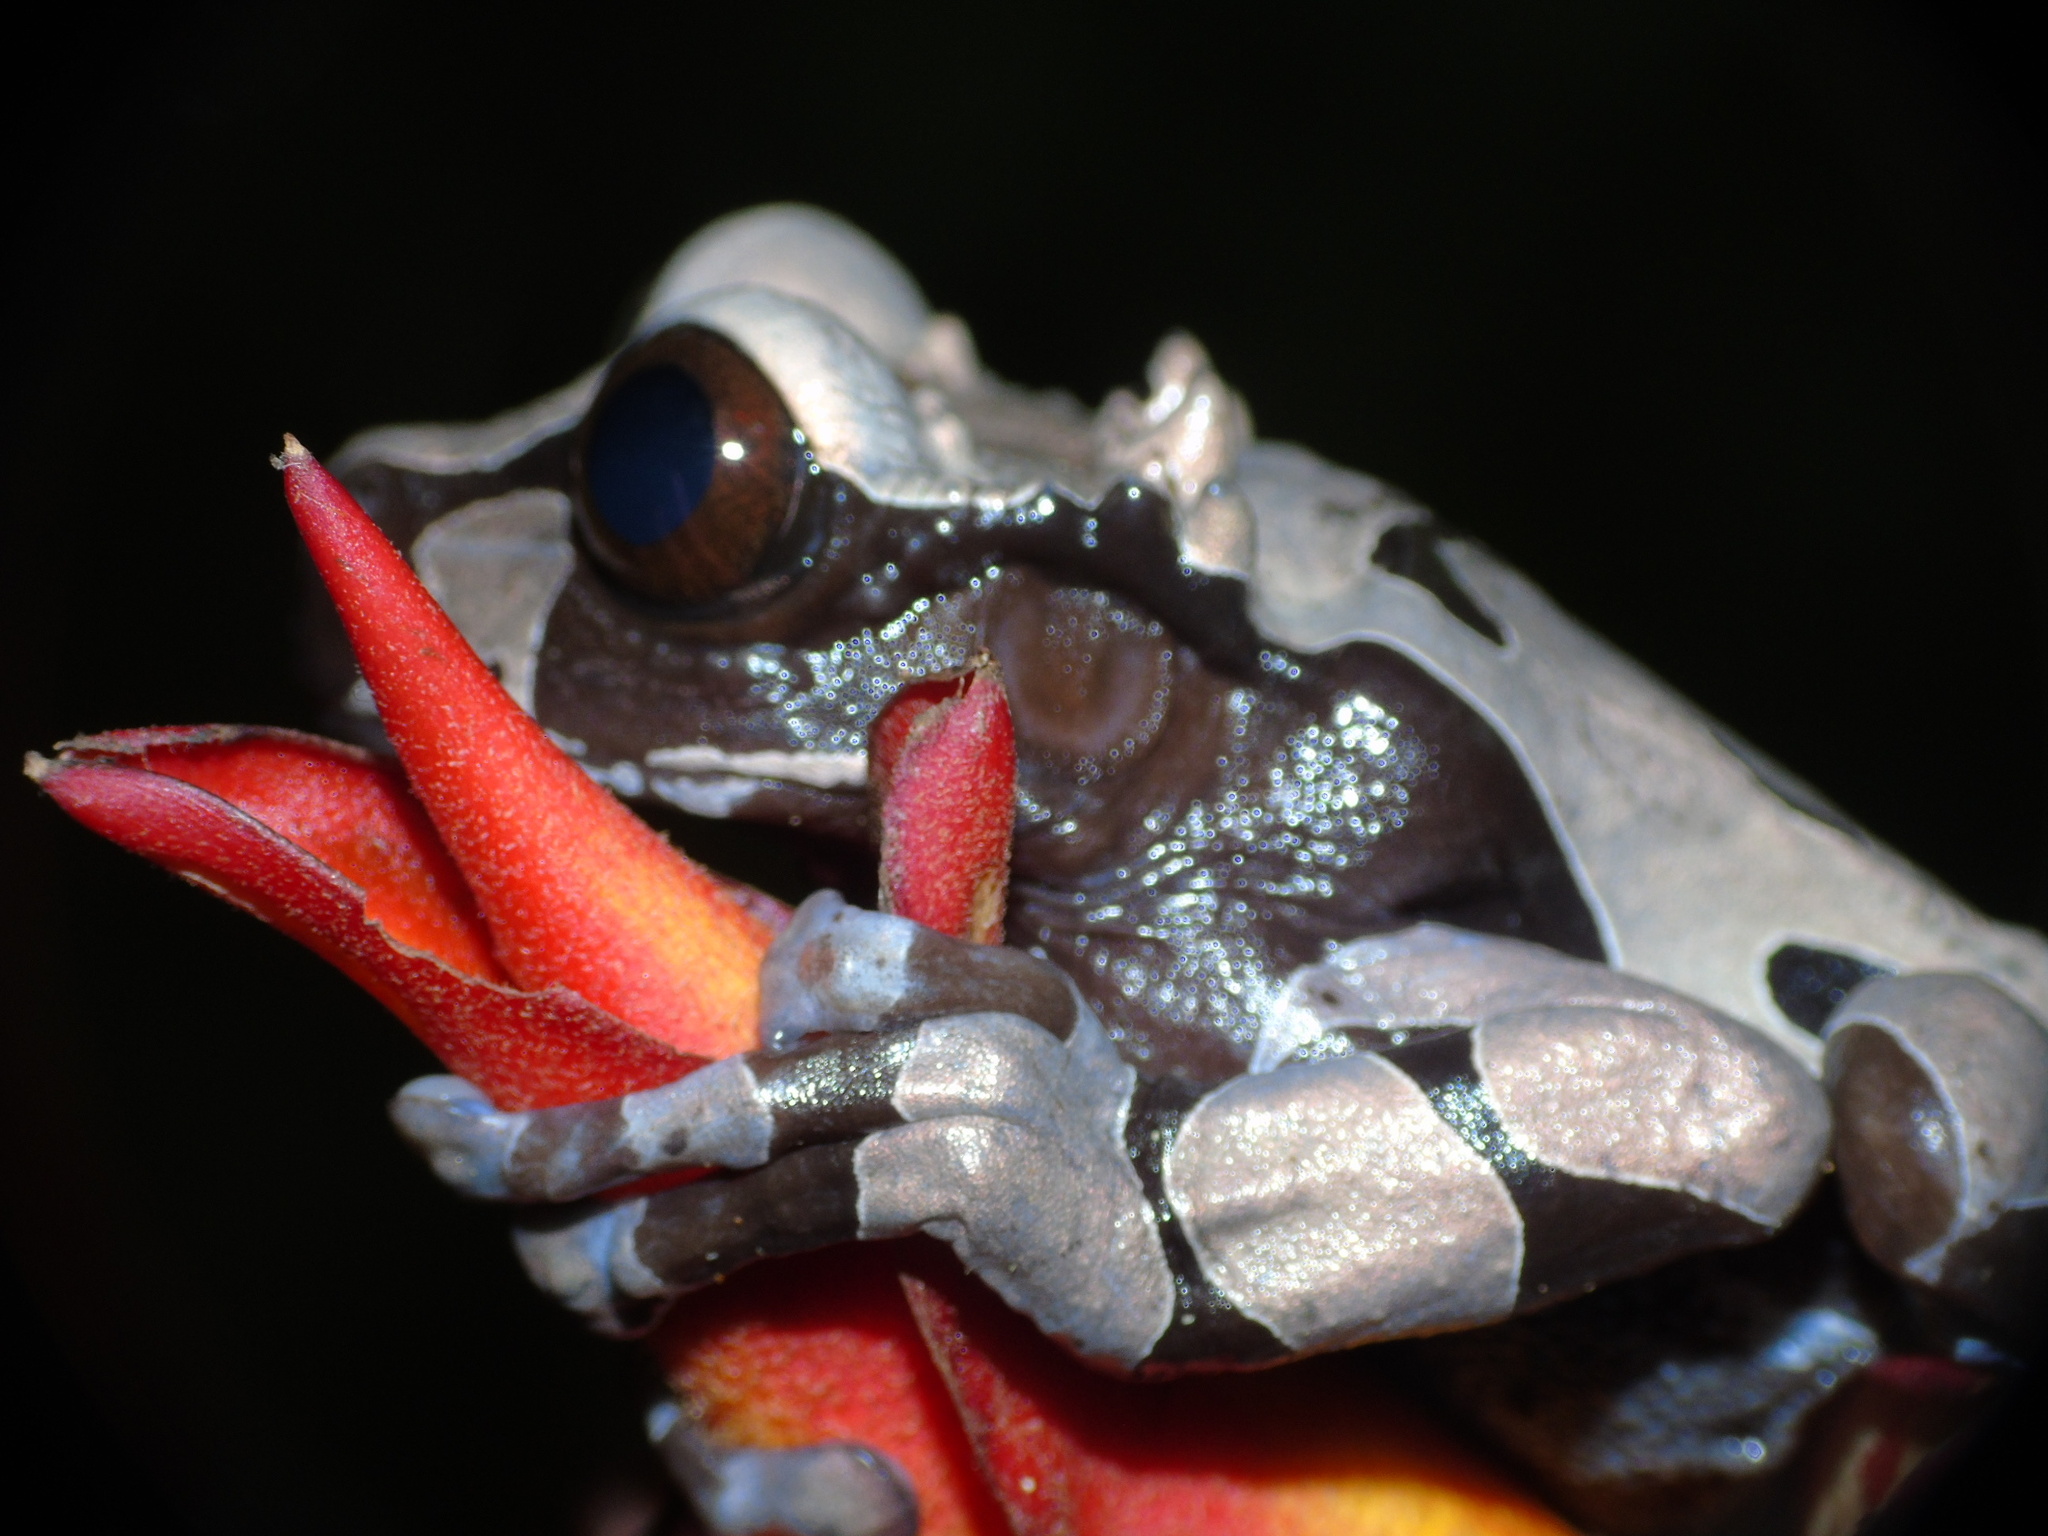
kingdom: Animalia
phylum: Chordata
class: Amphibia
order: Anura
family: Hylidae
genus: Triprion
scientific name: Triprion spinosus
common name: Coronated treefrog
